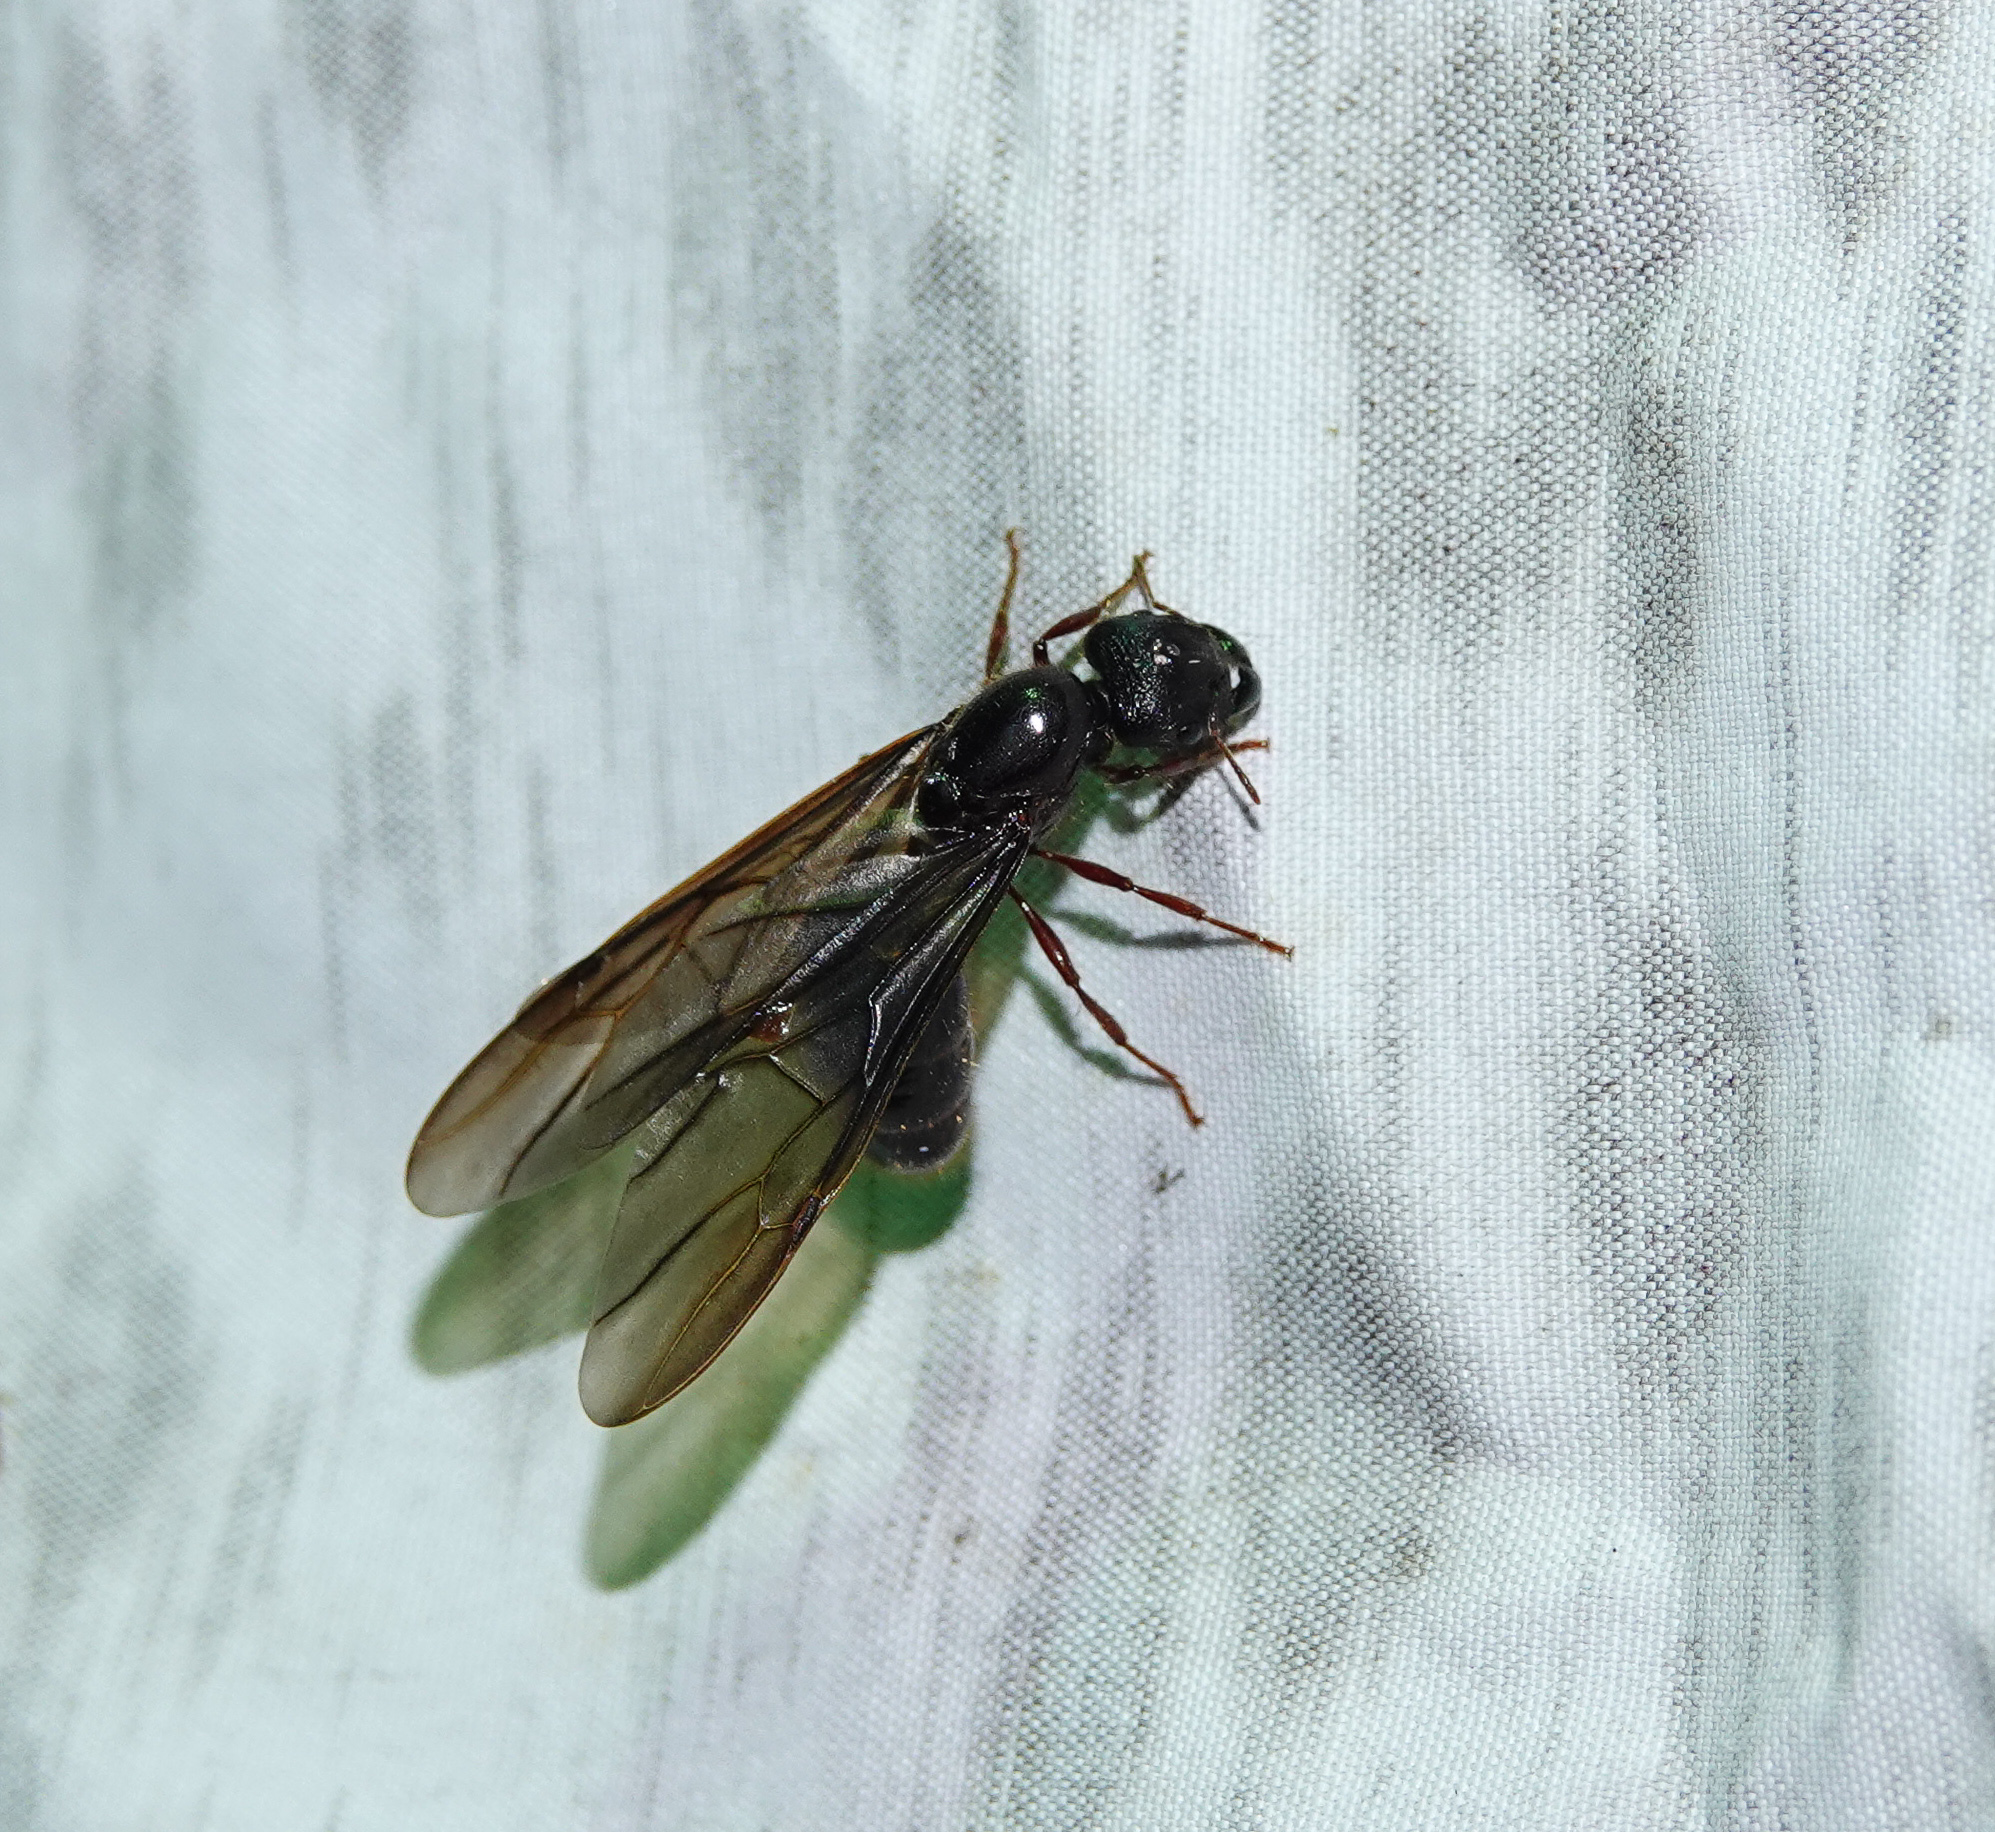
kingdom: Animalia
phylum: Arthropoda
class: Insecta
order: Hymenoptera
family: Formicidae
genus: Pheidologeton
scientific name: Pheidologeton diversus
